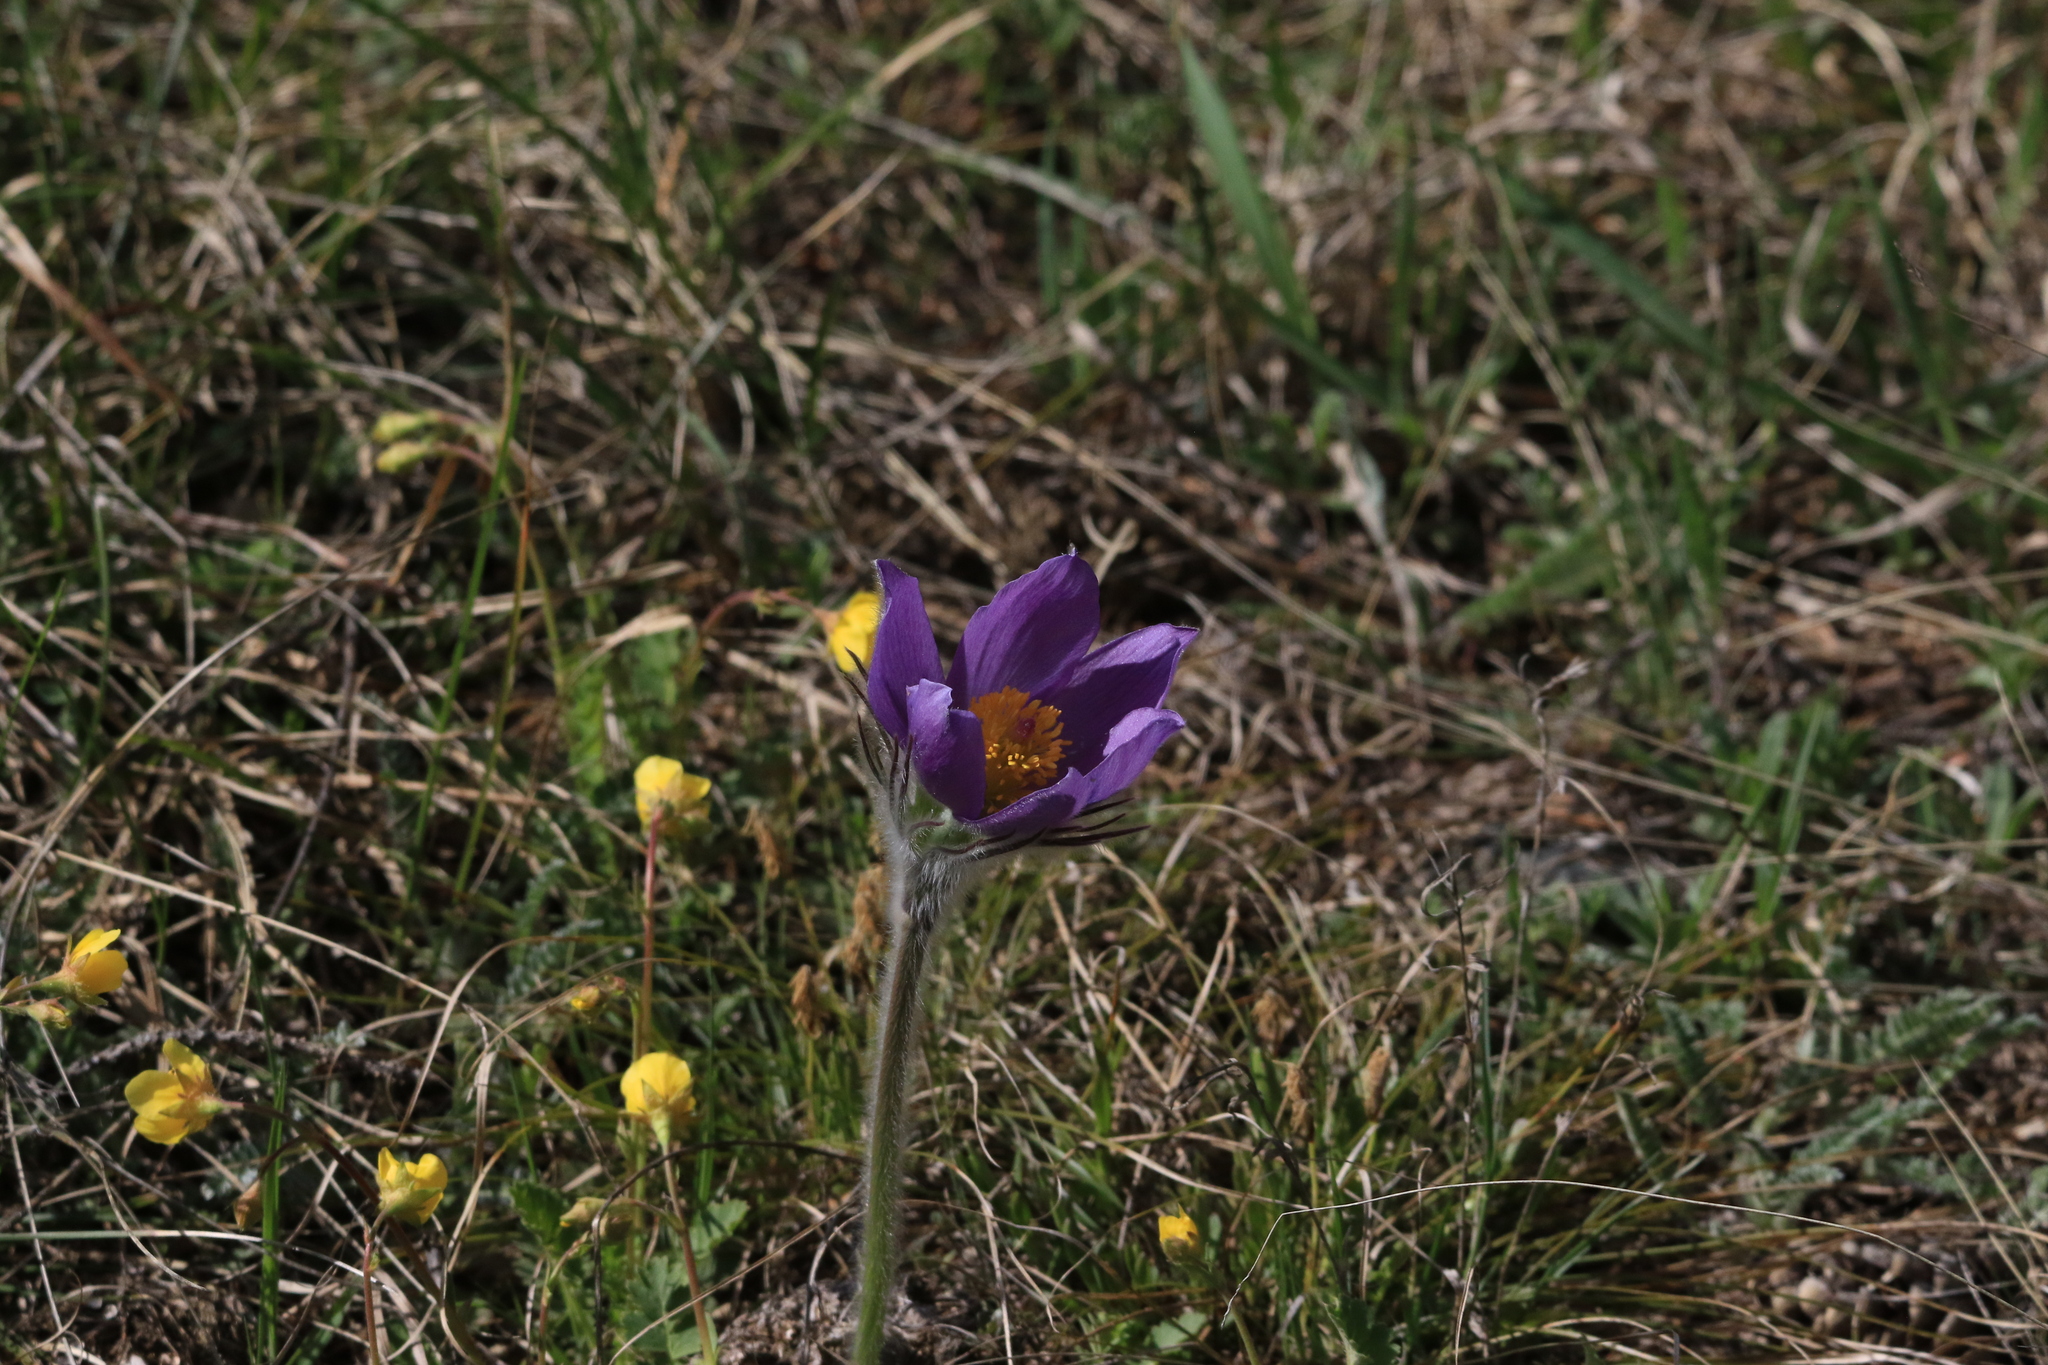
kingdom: Plantae
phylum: Tracheophyta
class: Magnoliopsida
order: Ranunculales
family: Ranunculaceae
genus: Pulsatilla
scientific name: Pulsatilla patens
